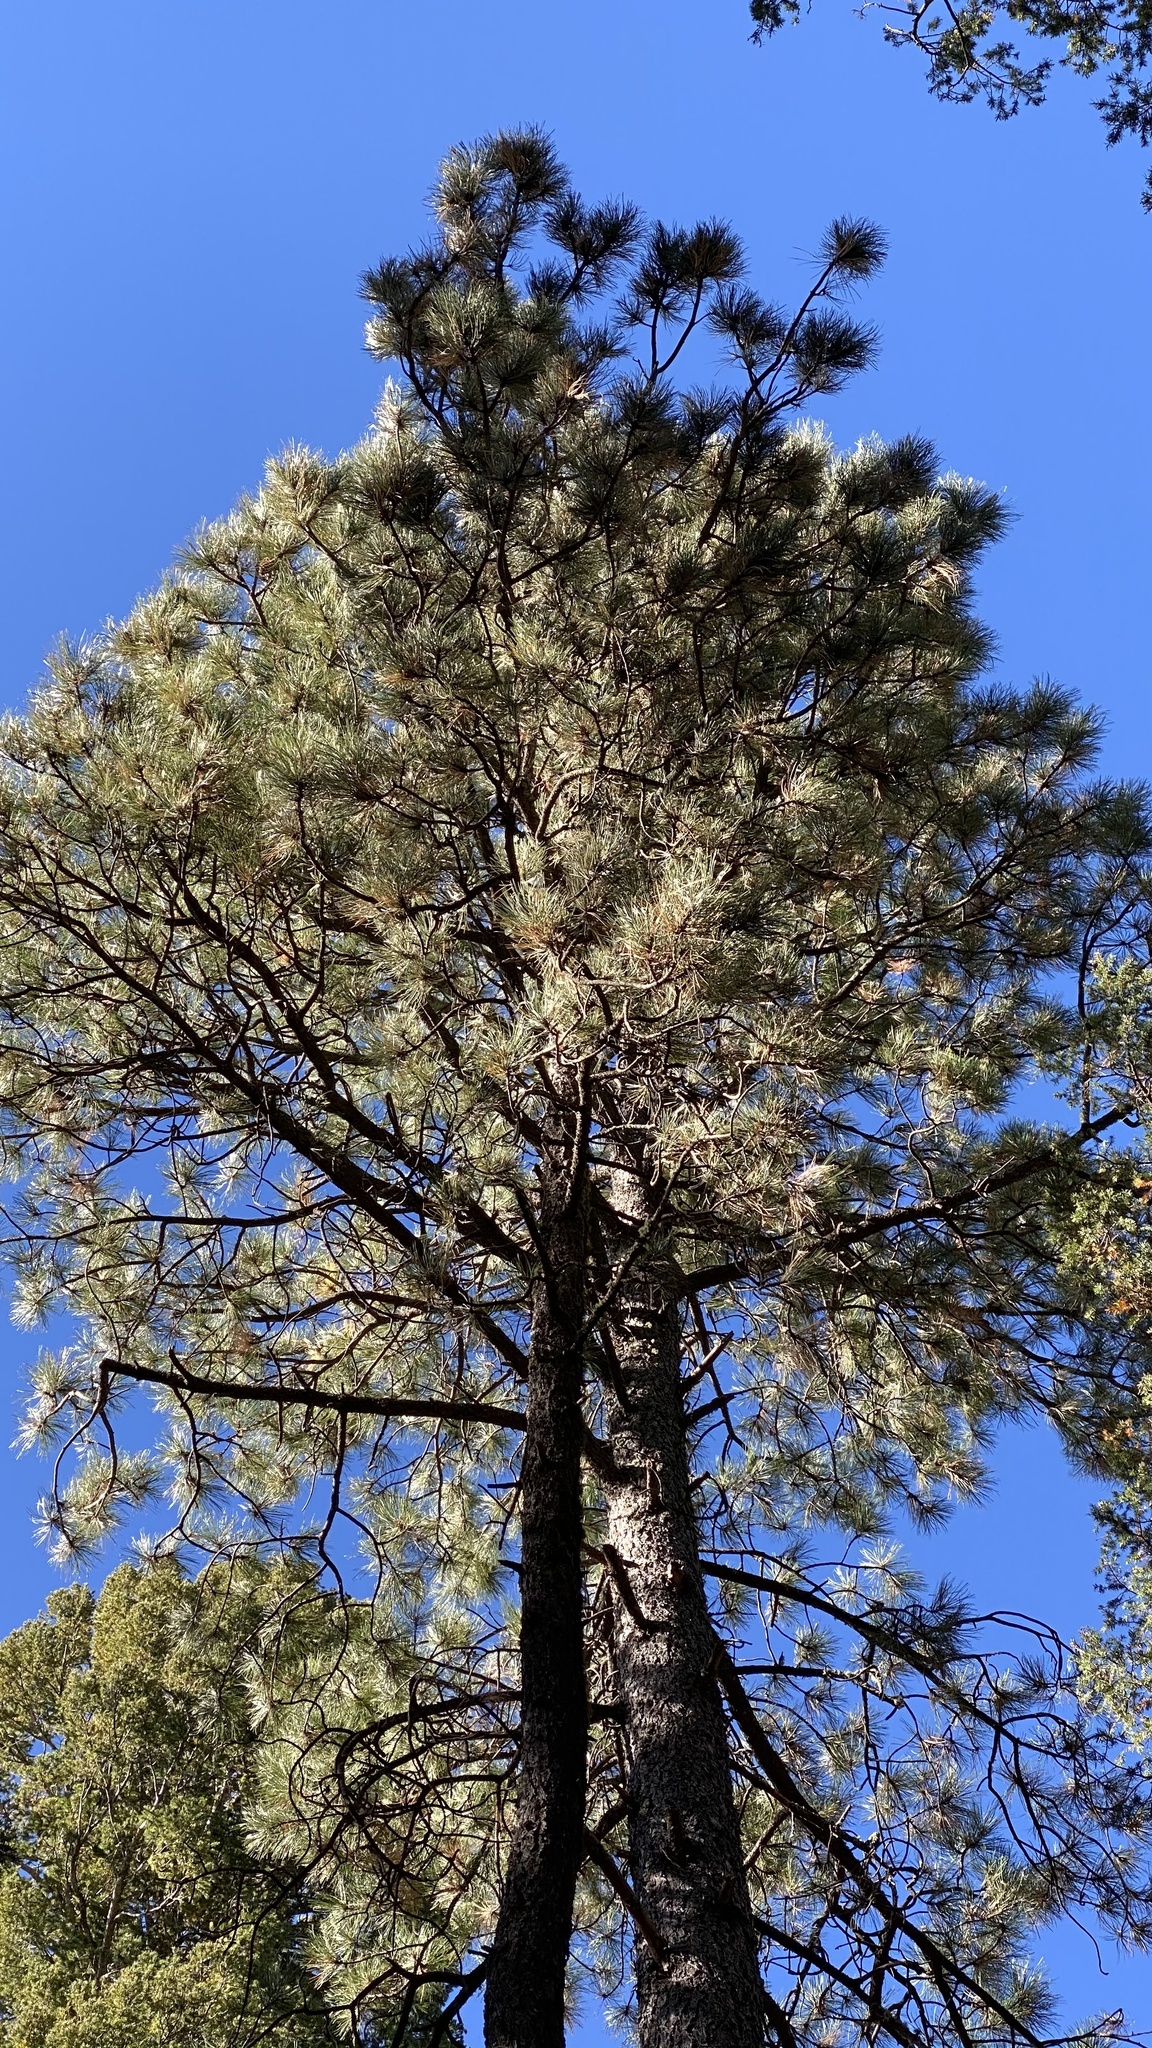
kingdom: Plantae
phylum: Tracheophyta
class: Pinopsida
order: Pinales
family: Pinaceae
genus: Pinus
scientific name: Pinus ponderosa
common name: Western yellow-pine
